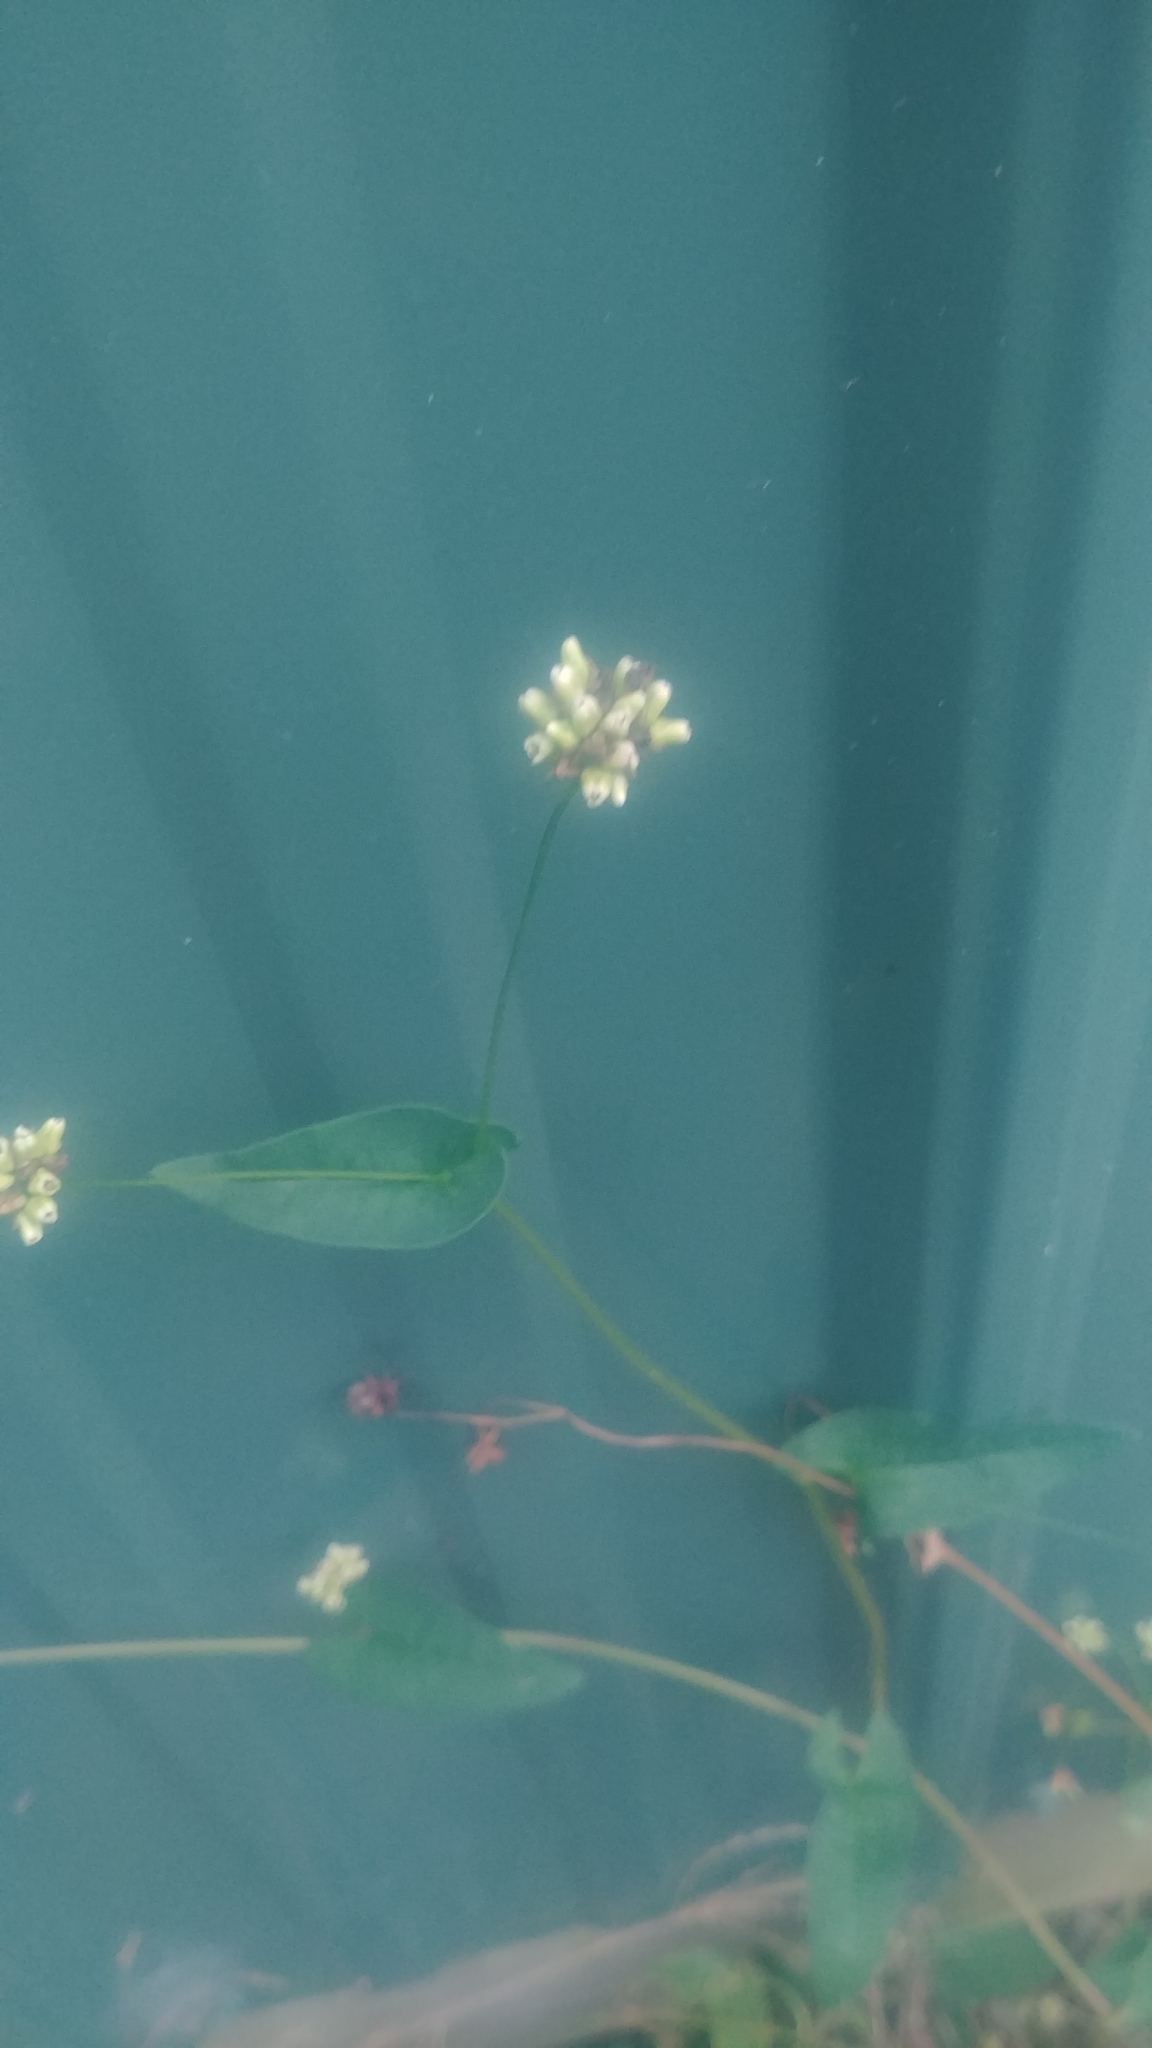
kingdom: Plantae
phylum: Tracheophyta
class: Magnoliopsida
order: Caryophyllales
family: Polygonaceae
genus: Persicaria
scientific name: Persicaria sagittata
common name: American tearthumb
